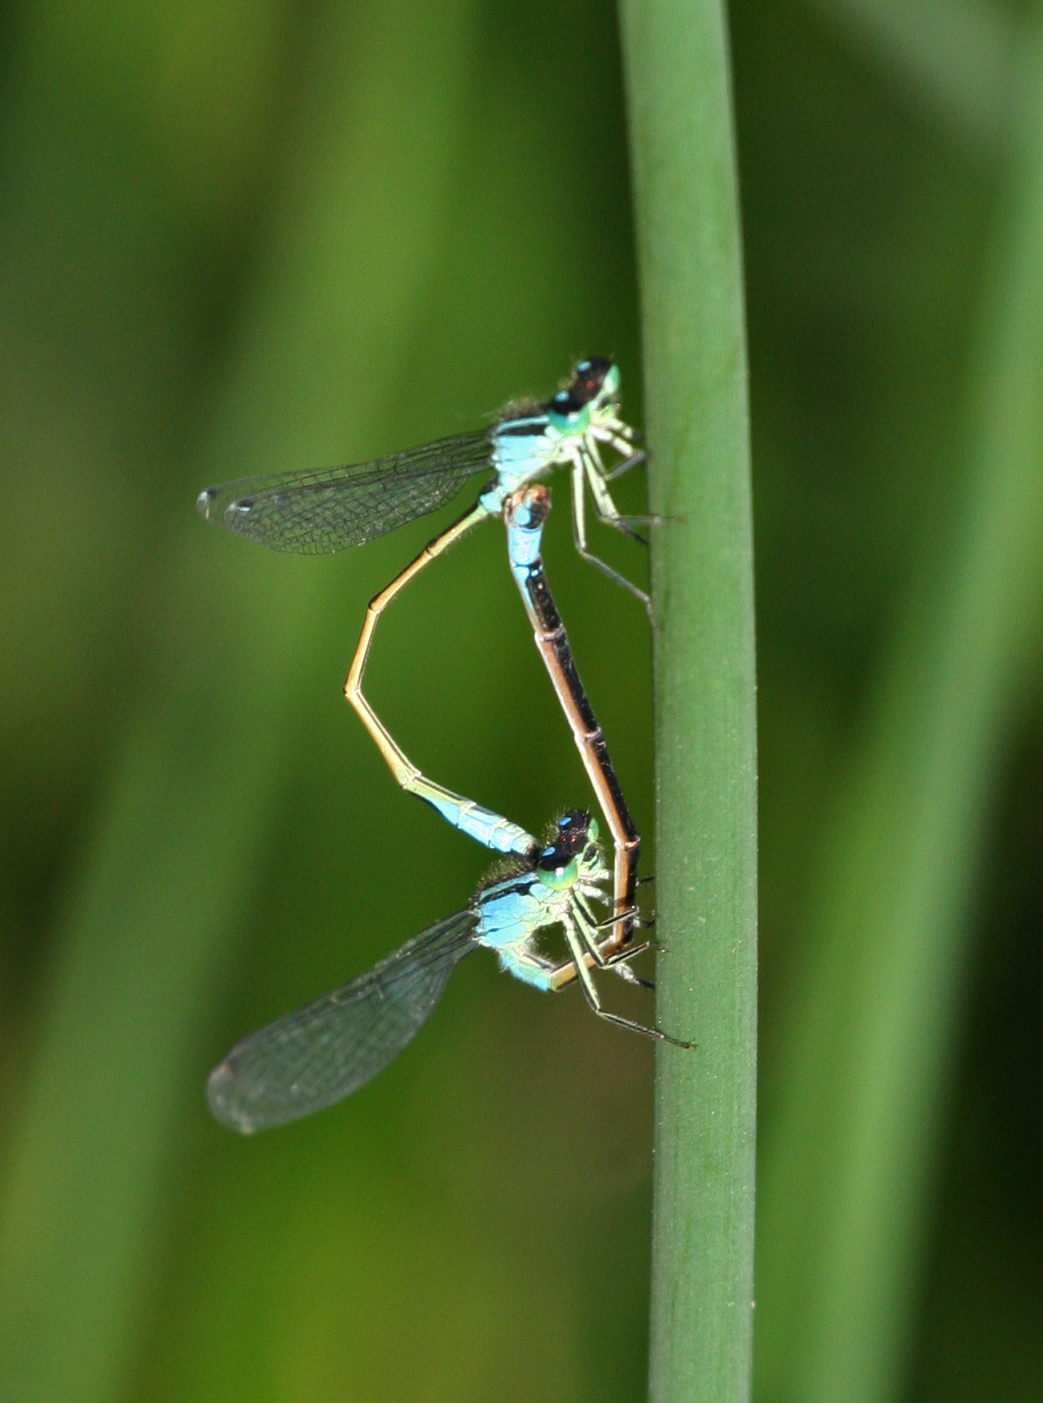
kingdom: Animalia
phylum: Arthropoda
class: Insecta
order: Odonata
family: Coenagrionidae
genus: Ischnura
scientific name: Ischnura elegans
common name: Blue-tailed damselfly
